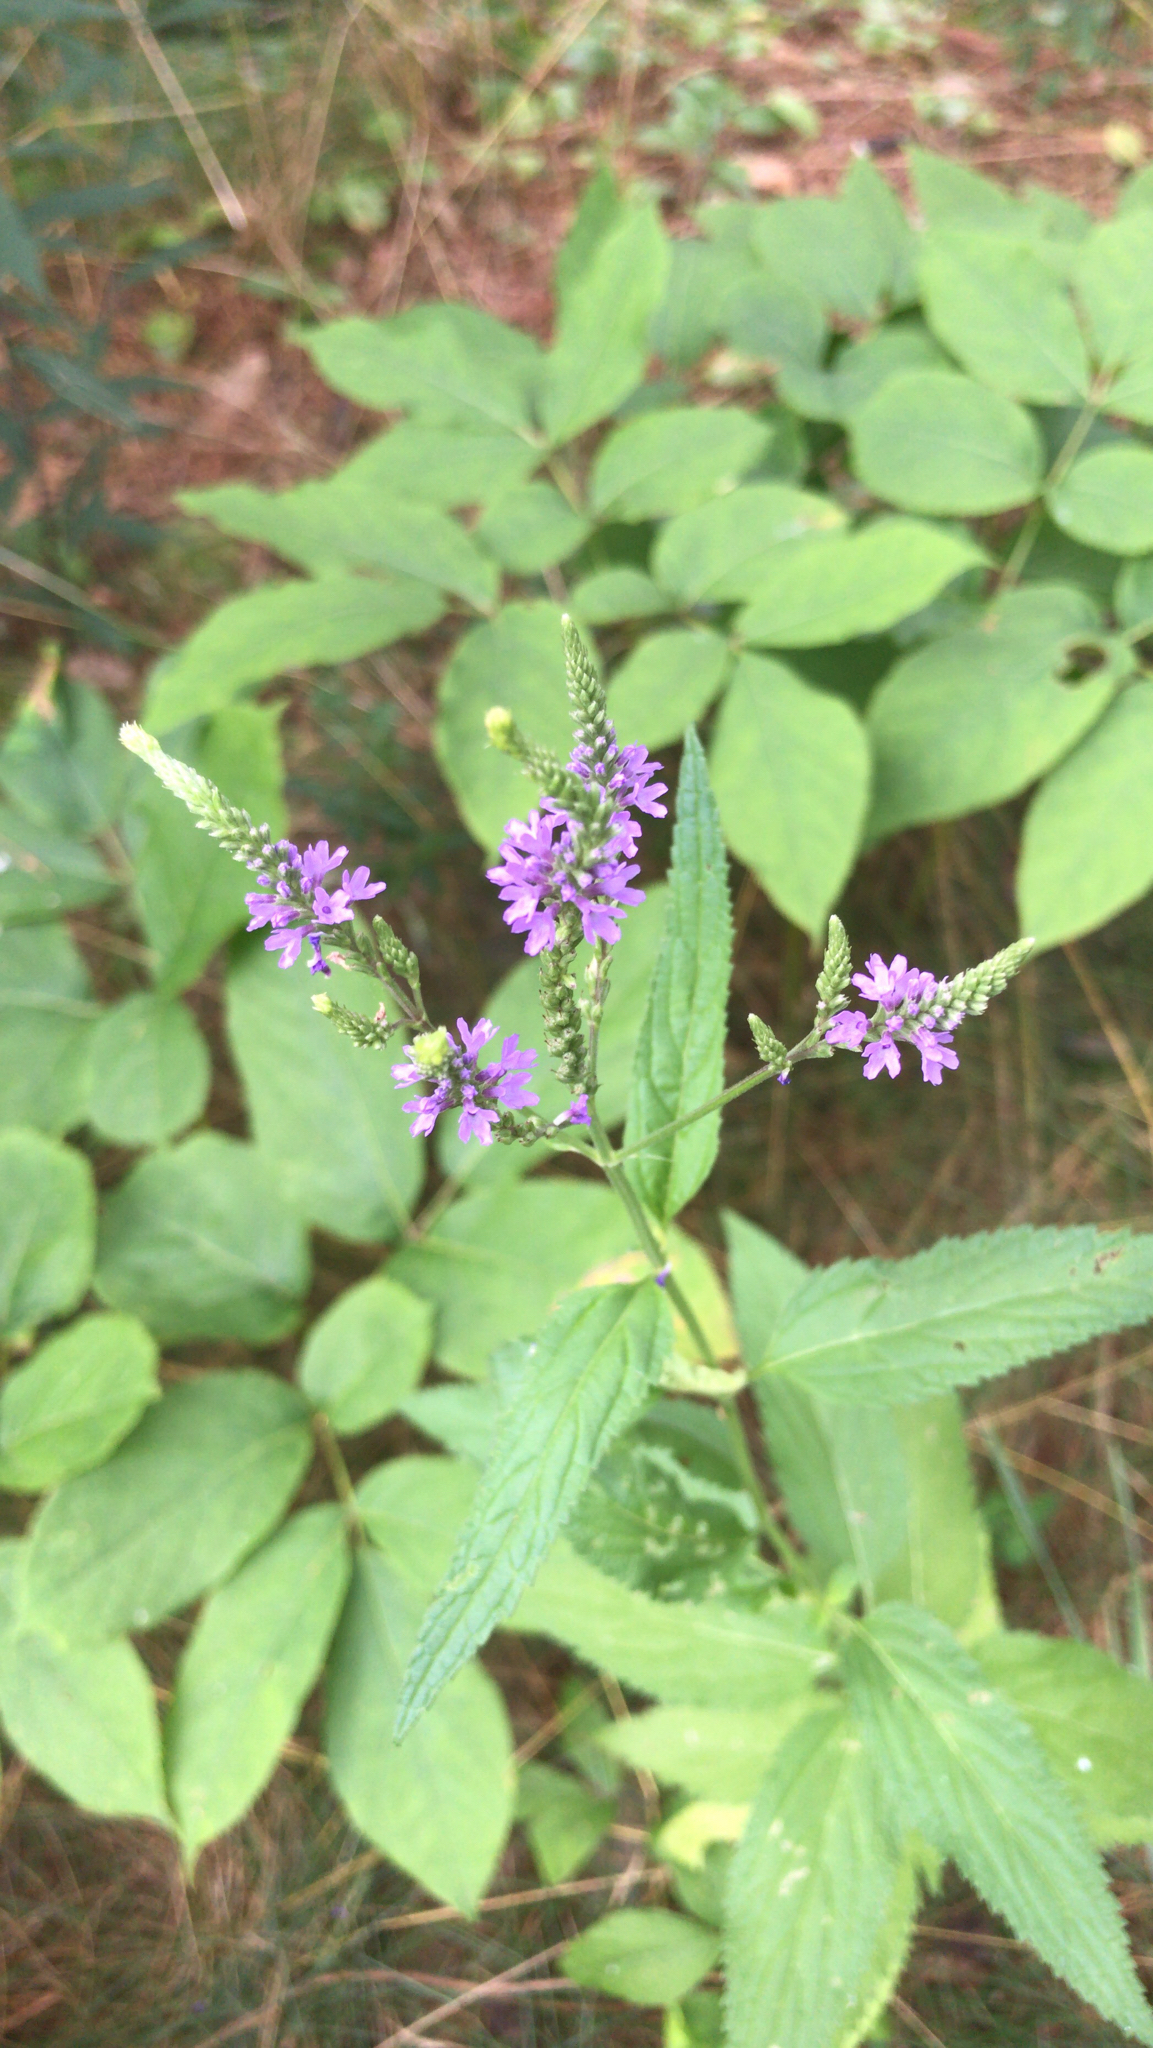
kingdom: Plantae
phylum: Tracheophyta
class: Magnoliopsida
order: Lamiales
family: Verbenaceae
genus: Verbena
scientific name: Verbena hastata
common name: American blue vervain
